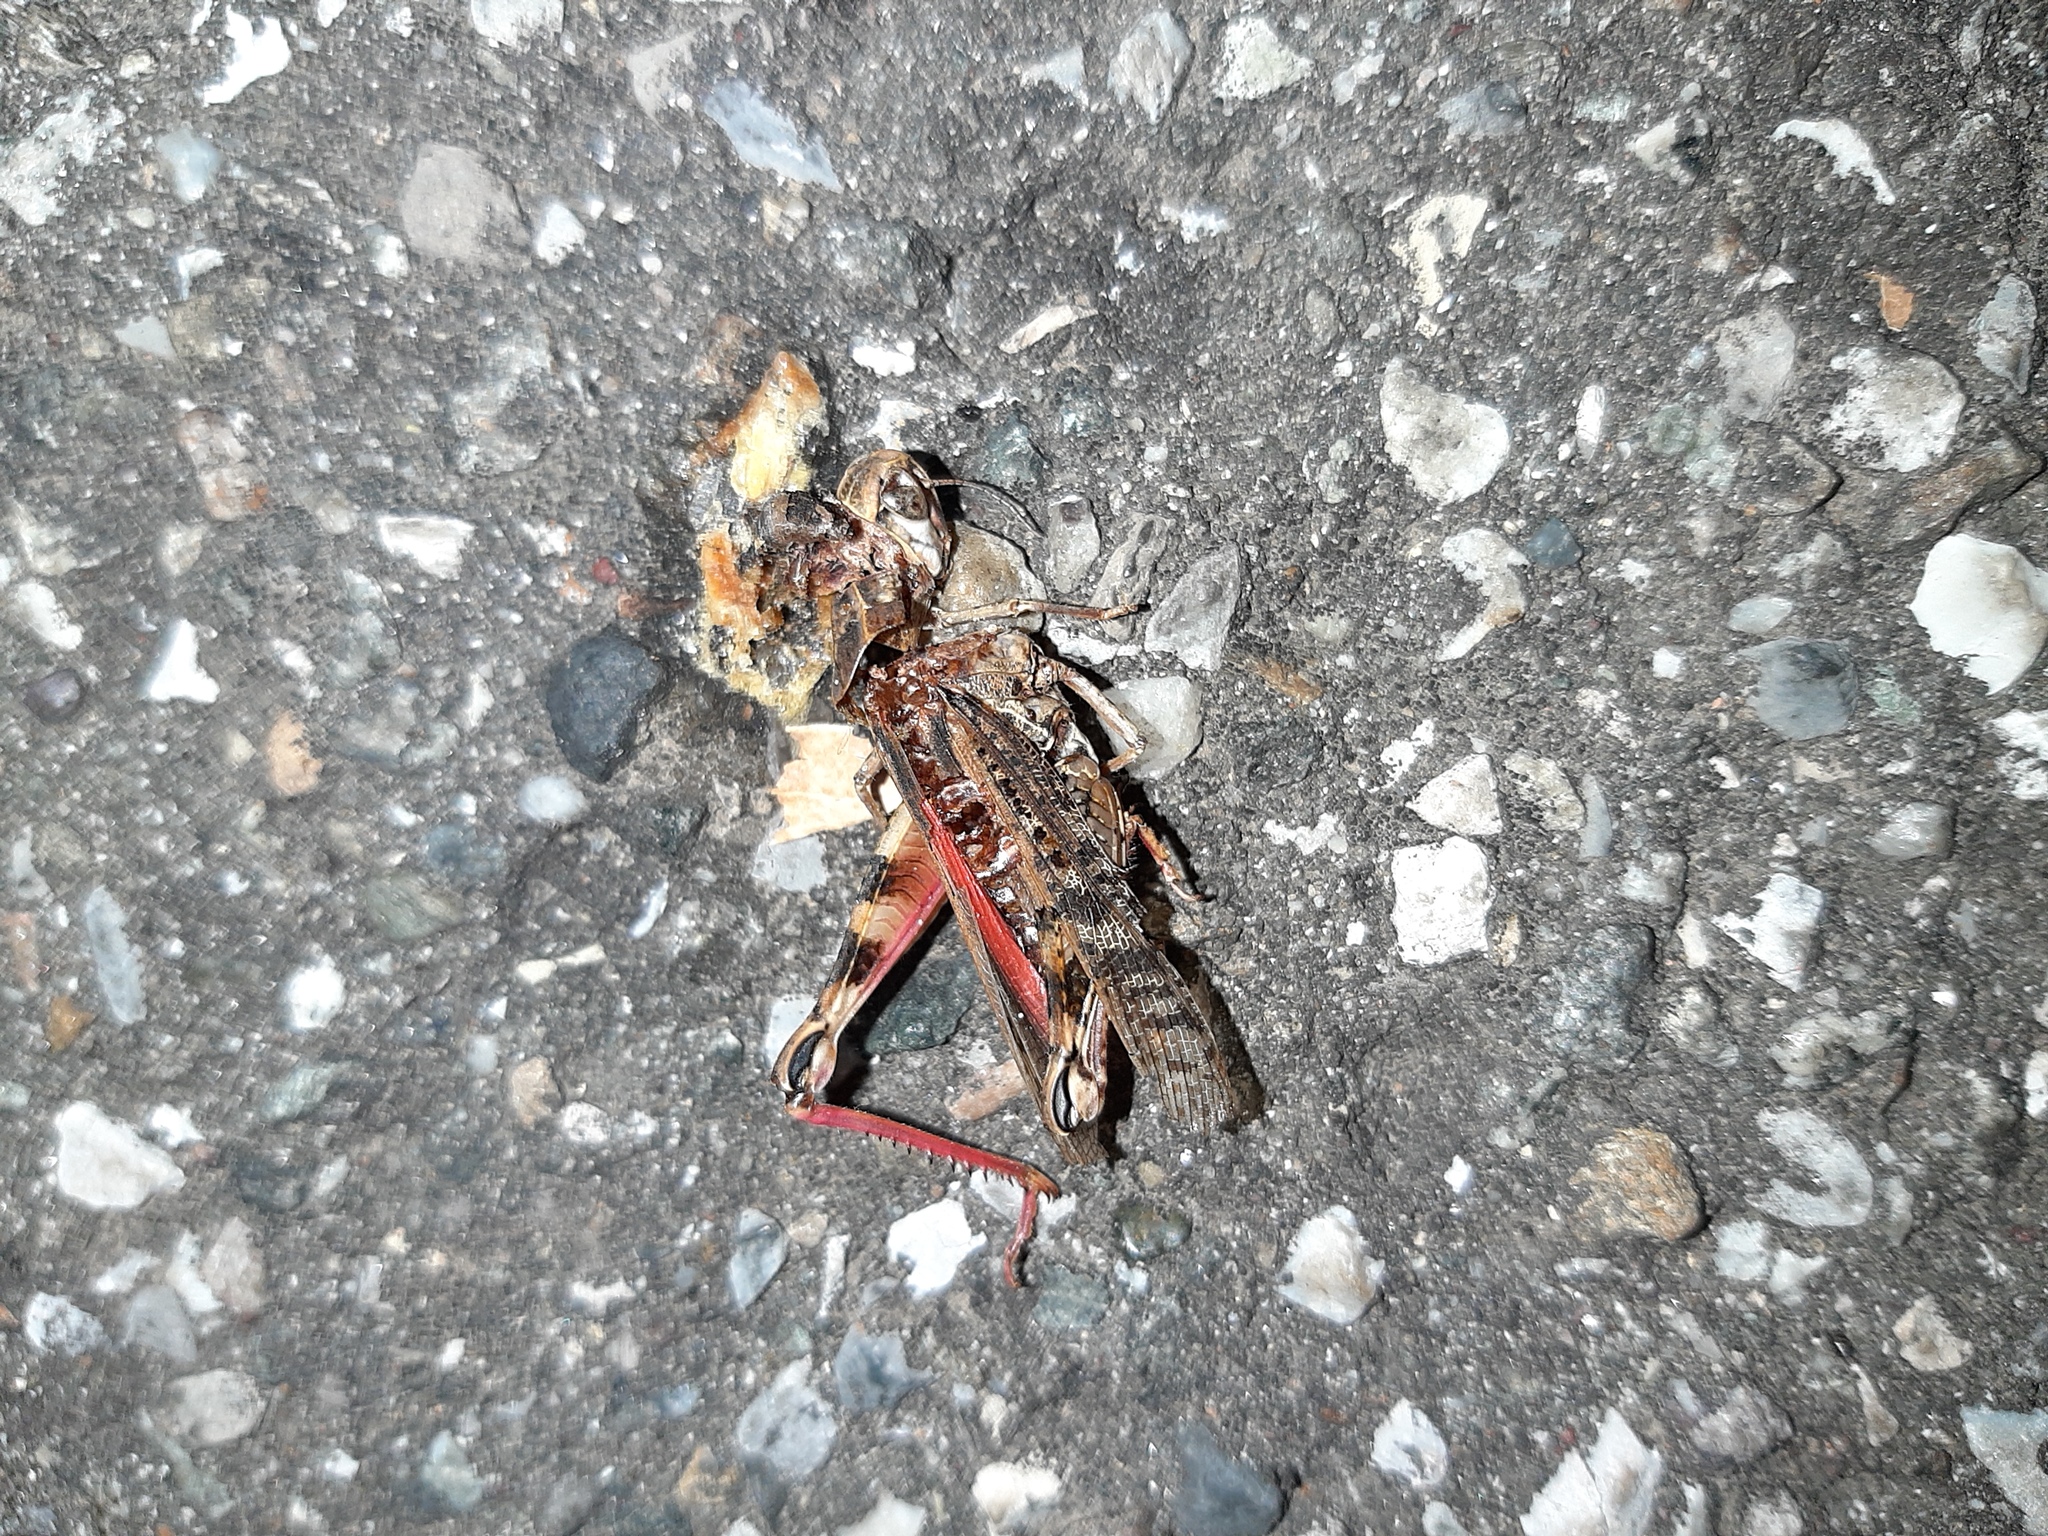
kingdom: Animalia
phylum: Arthropoda
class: Insecta
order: Orthoptera
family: Acrididae
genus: Calliptamus
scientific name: Calliptamus italicus
